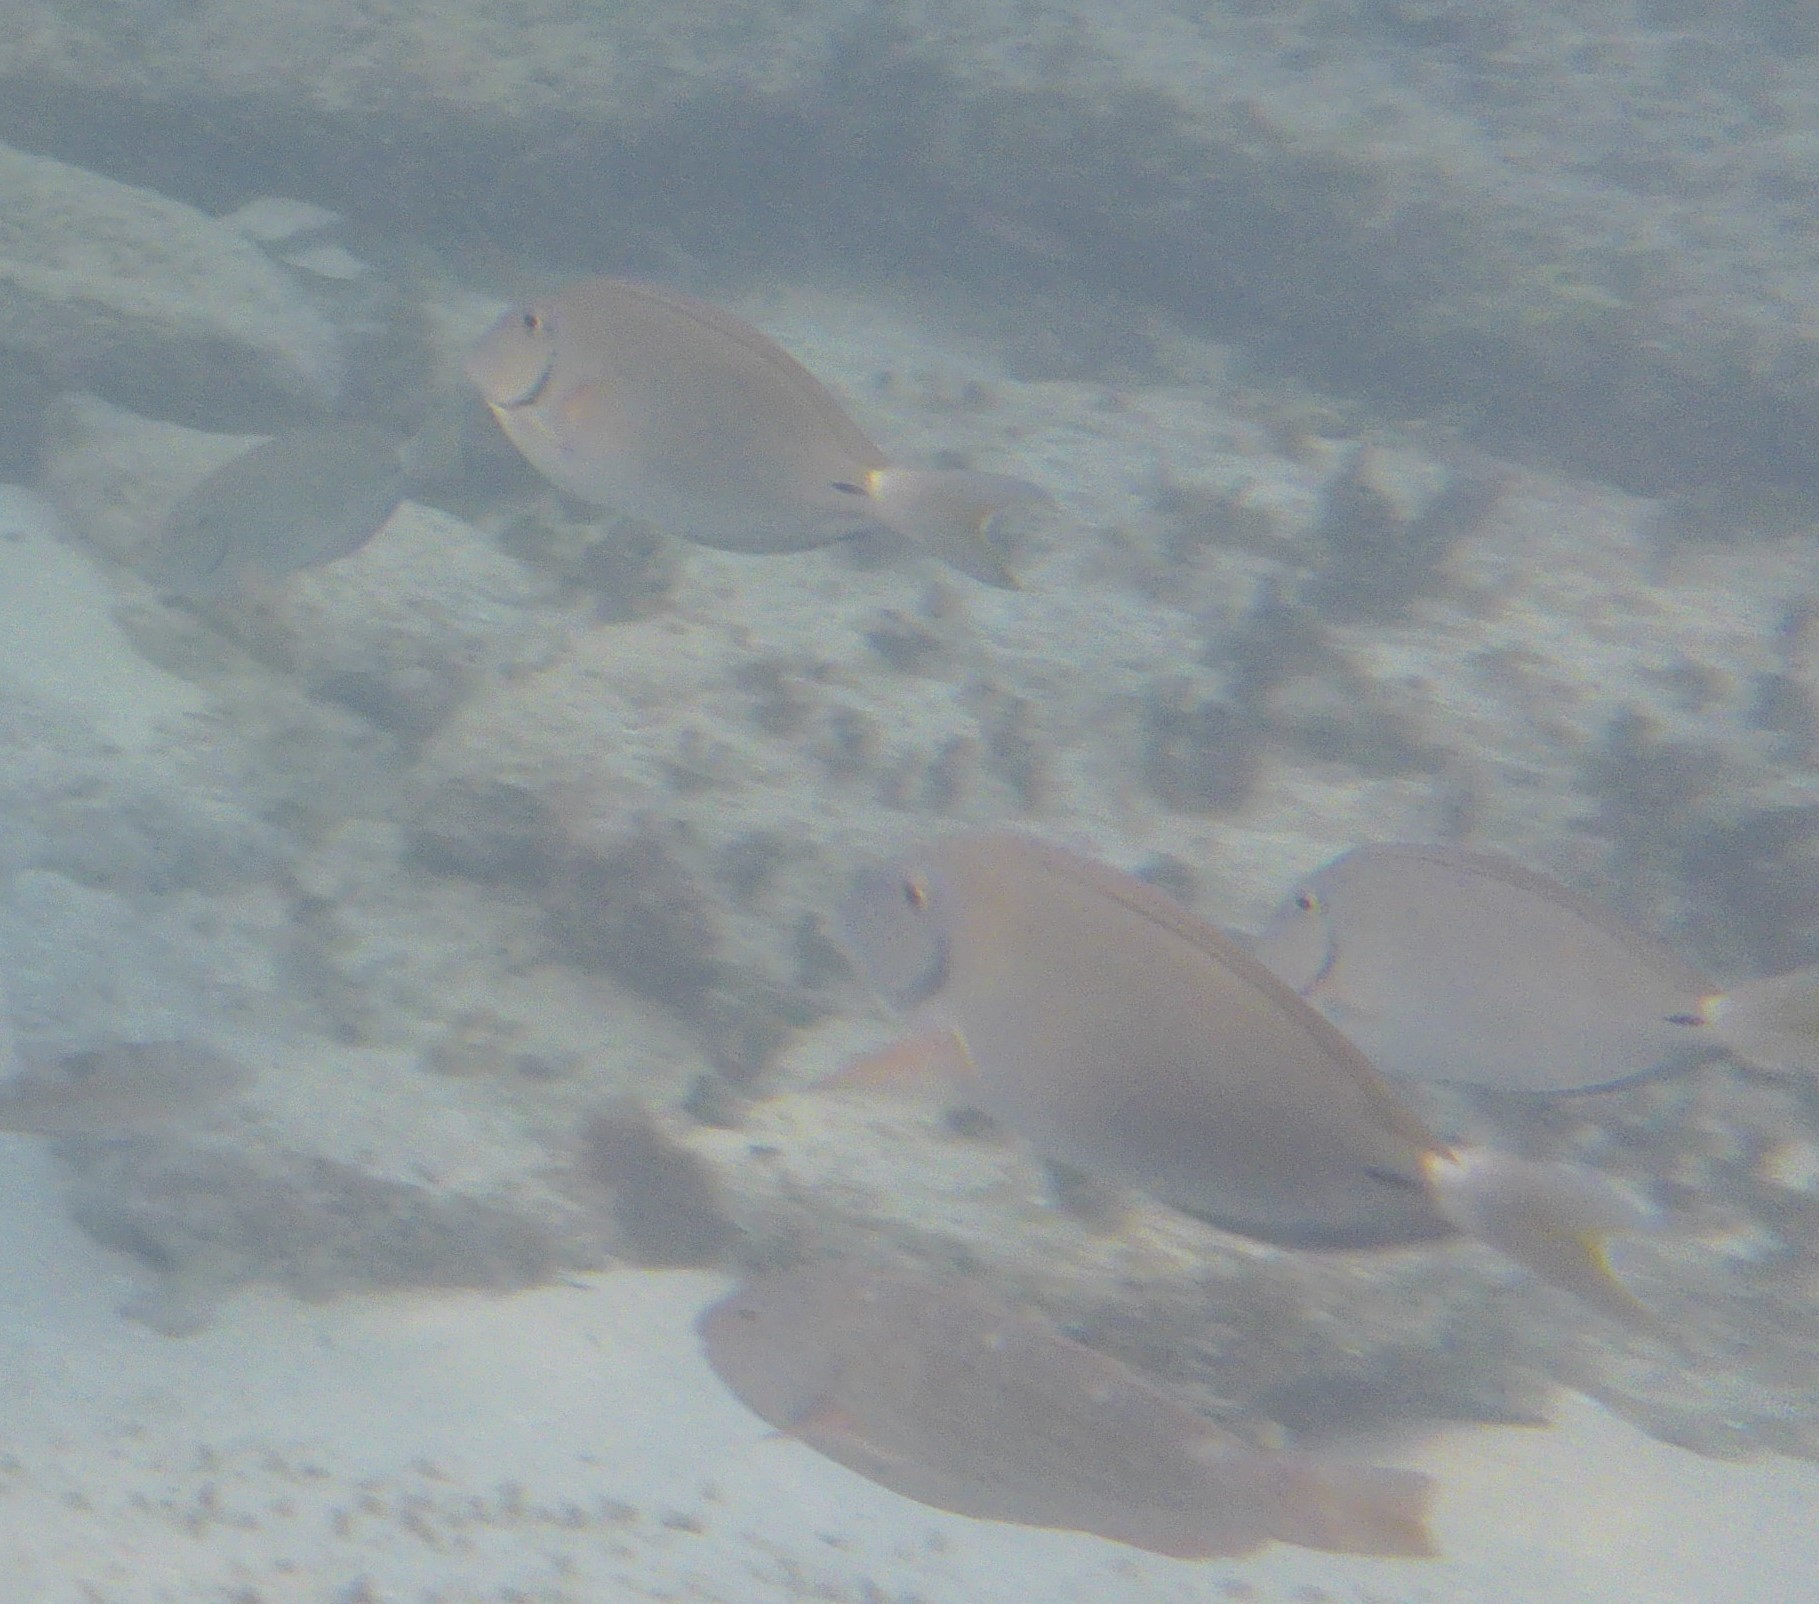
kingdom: Animalia
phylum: Chordata
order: Perciformes
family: Acanthuridae
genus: Acanthurus
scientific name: Acanthurus bahianus
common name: Ocean surgeon
